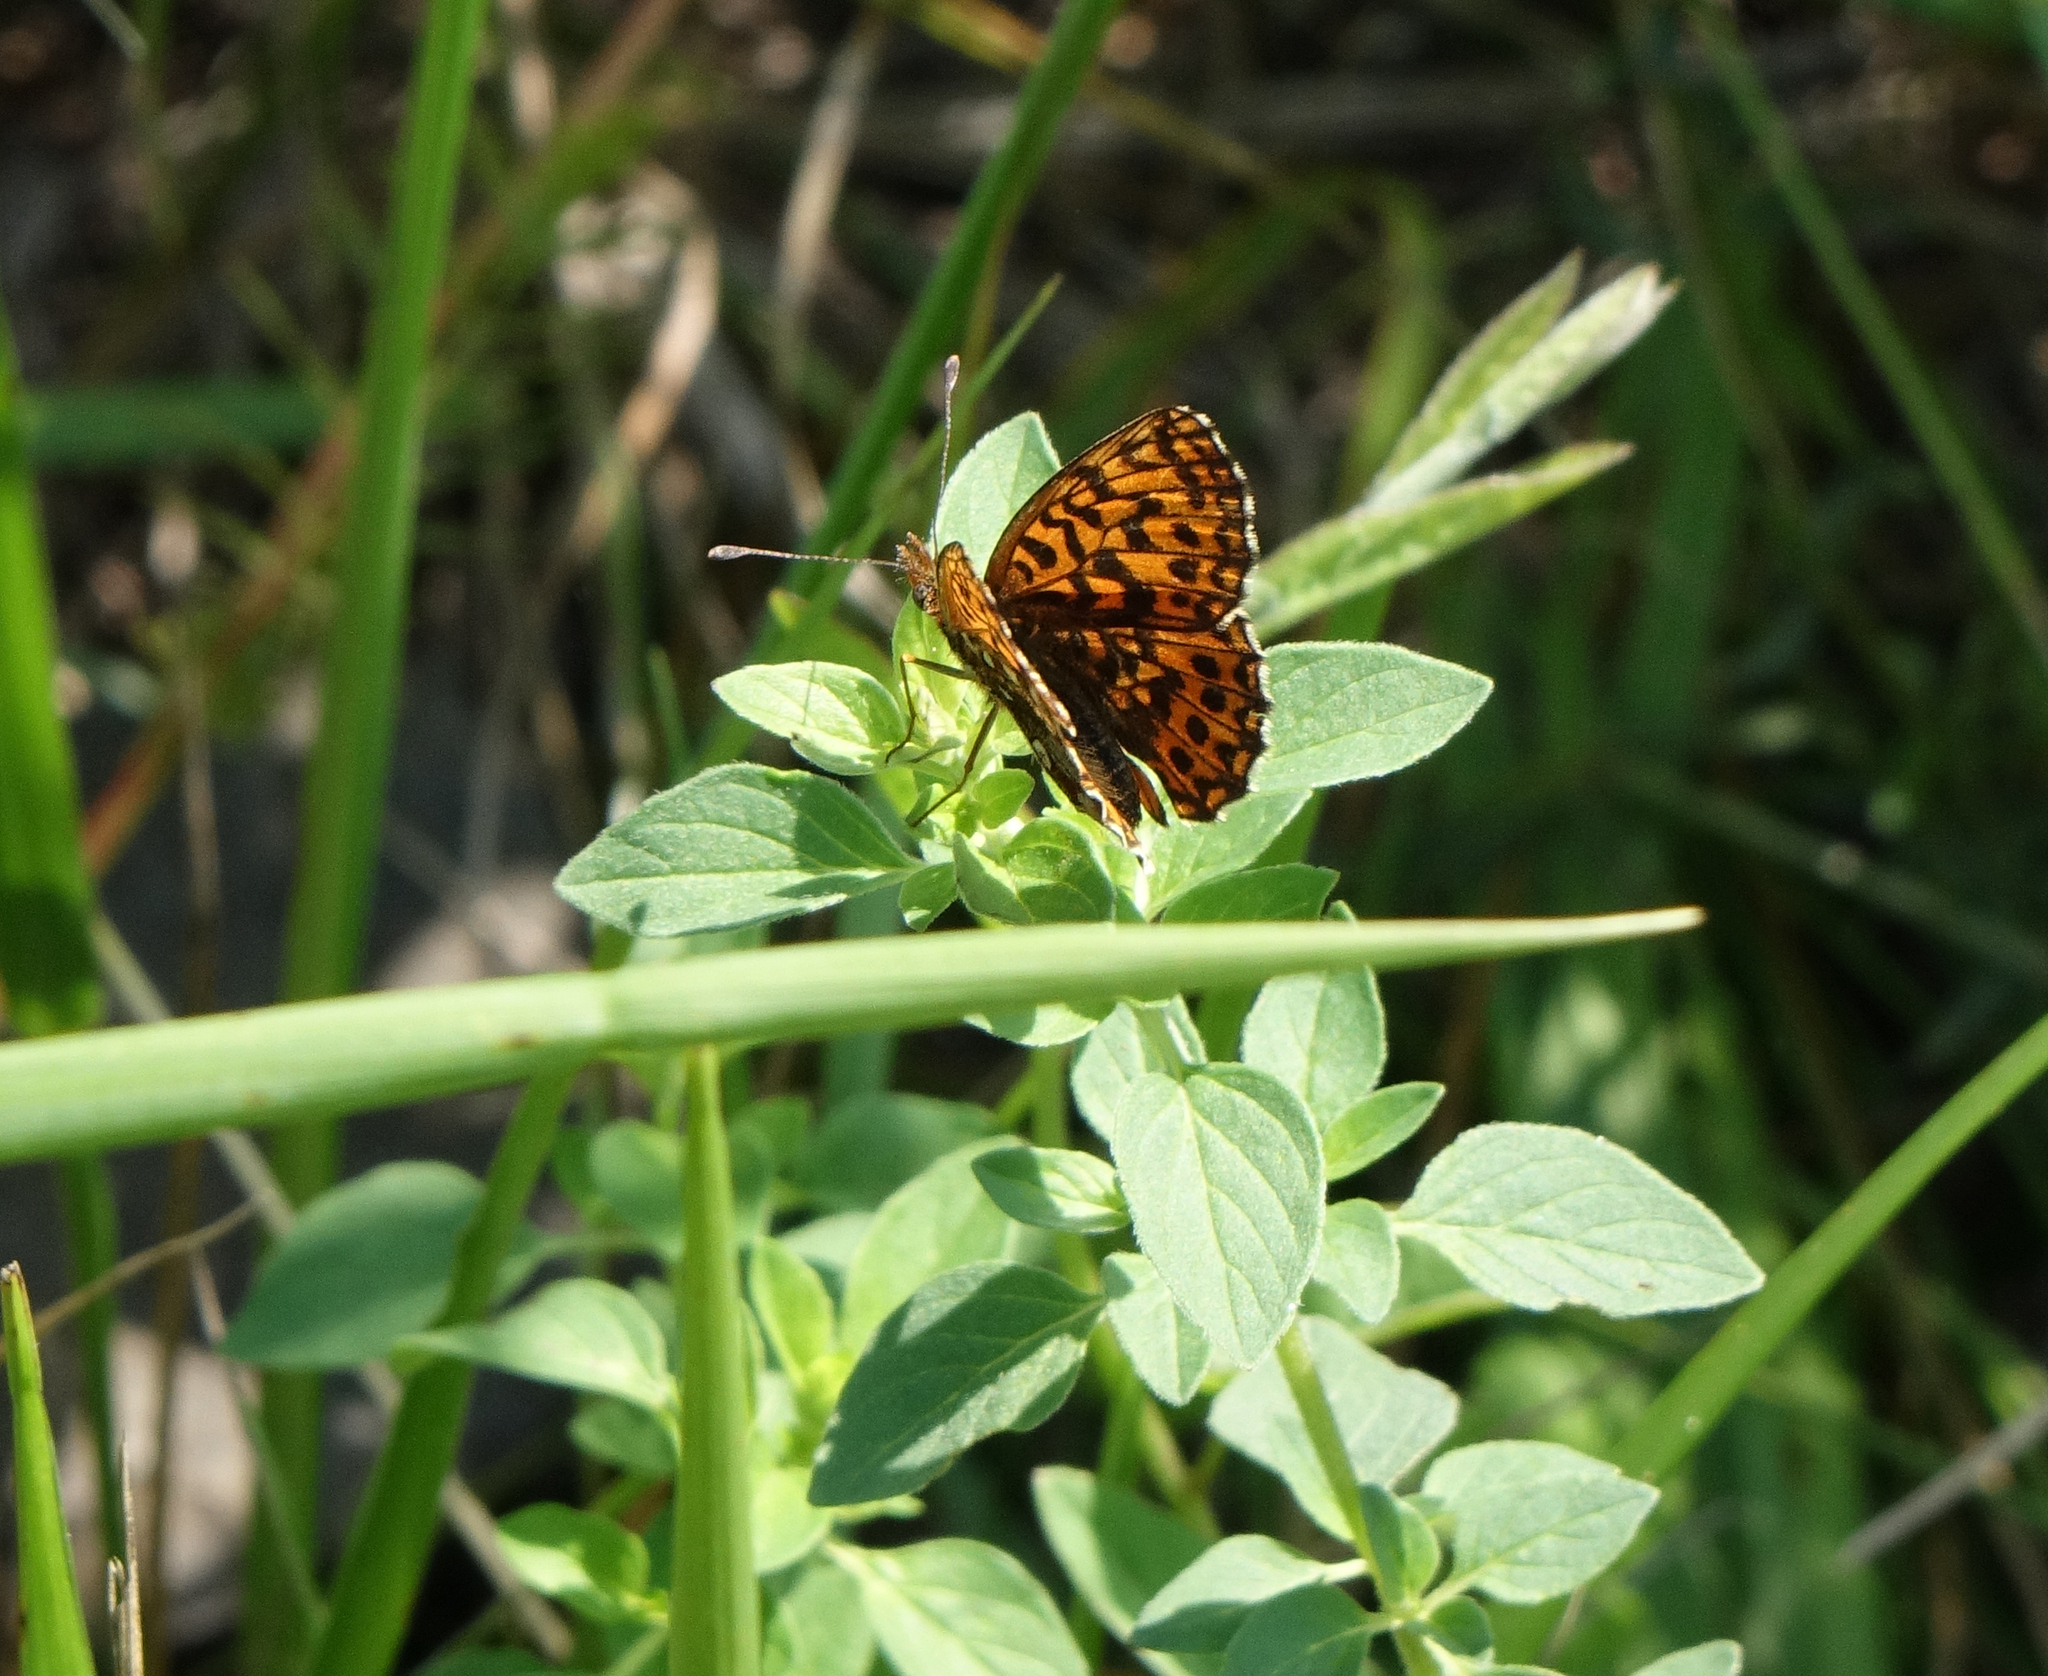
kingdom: Animalia
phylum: Arthropoda
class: Insecta
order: Lepidoptera
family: Nymphalidae
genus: Boloria
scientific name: Boloria dia
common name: Weaver's fritillary
